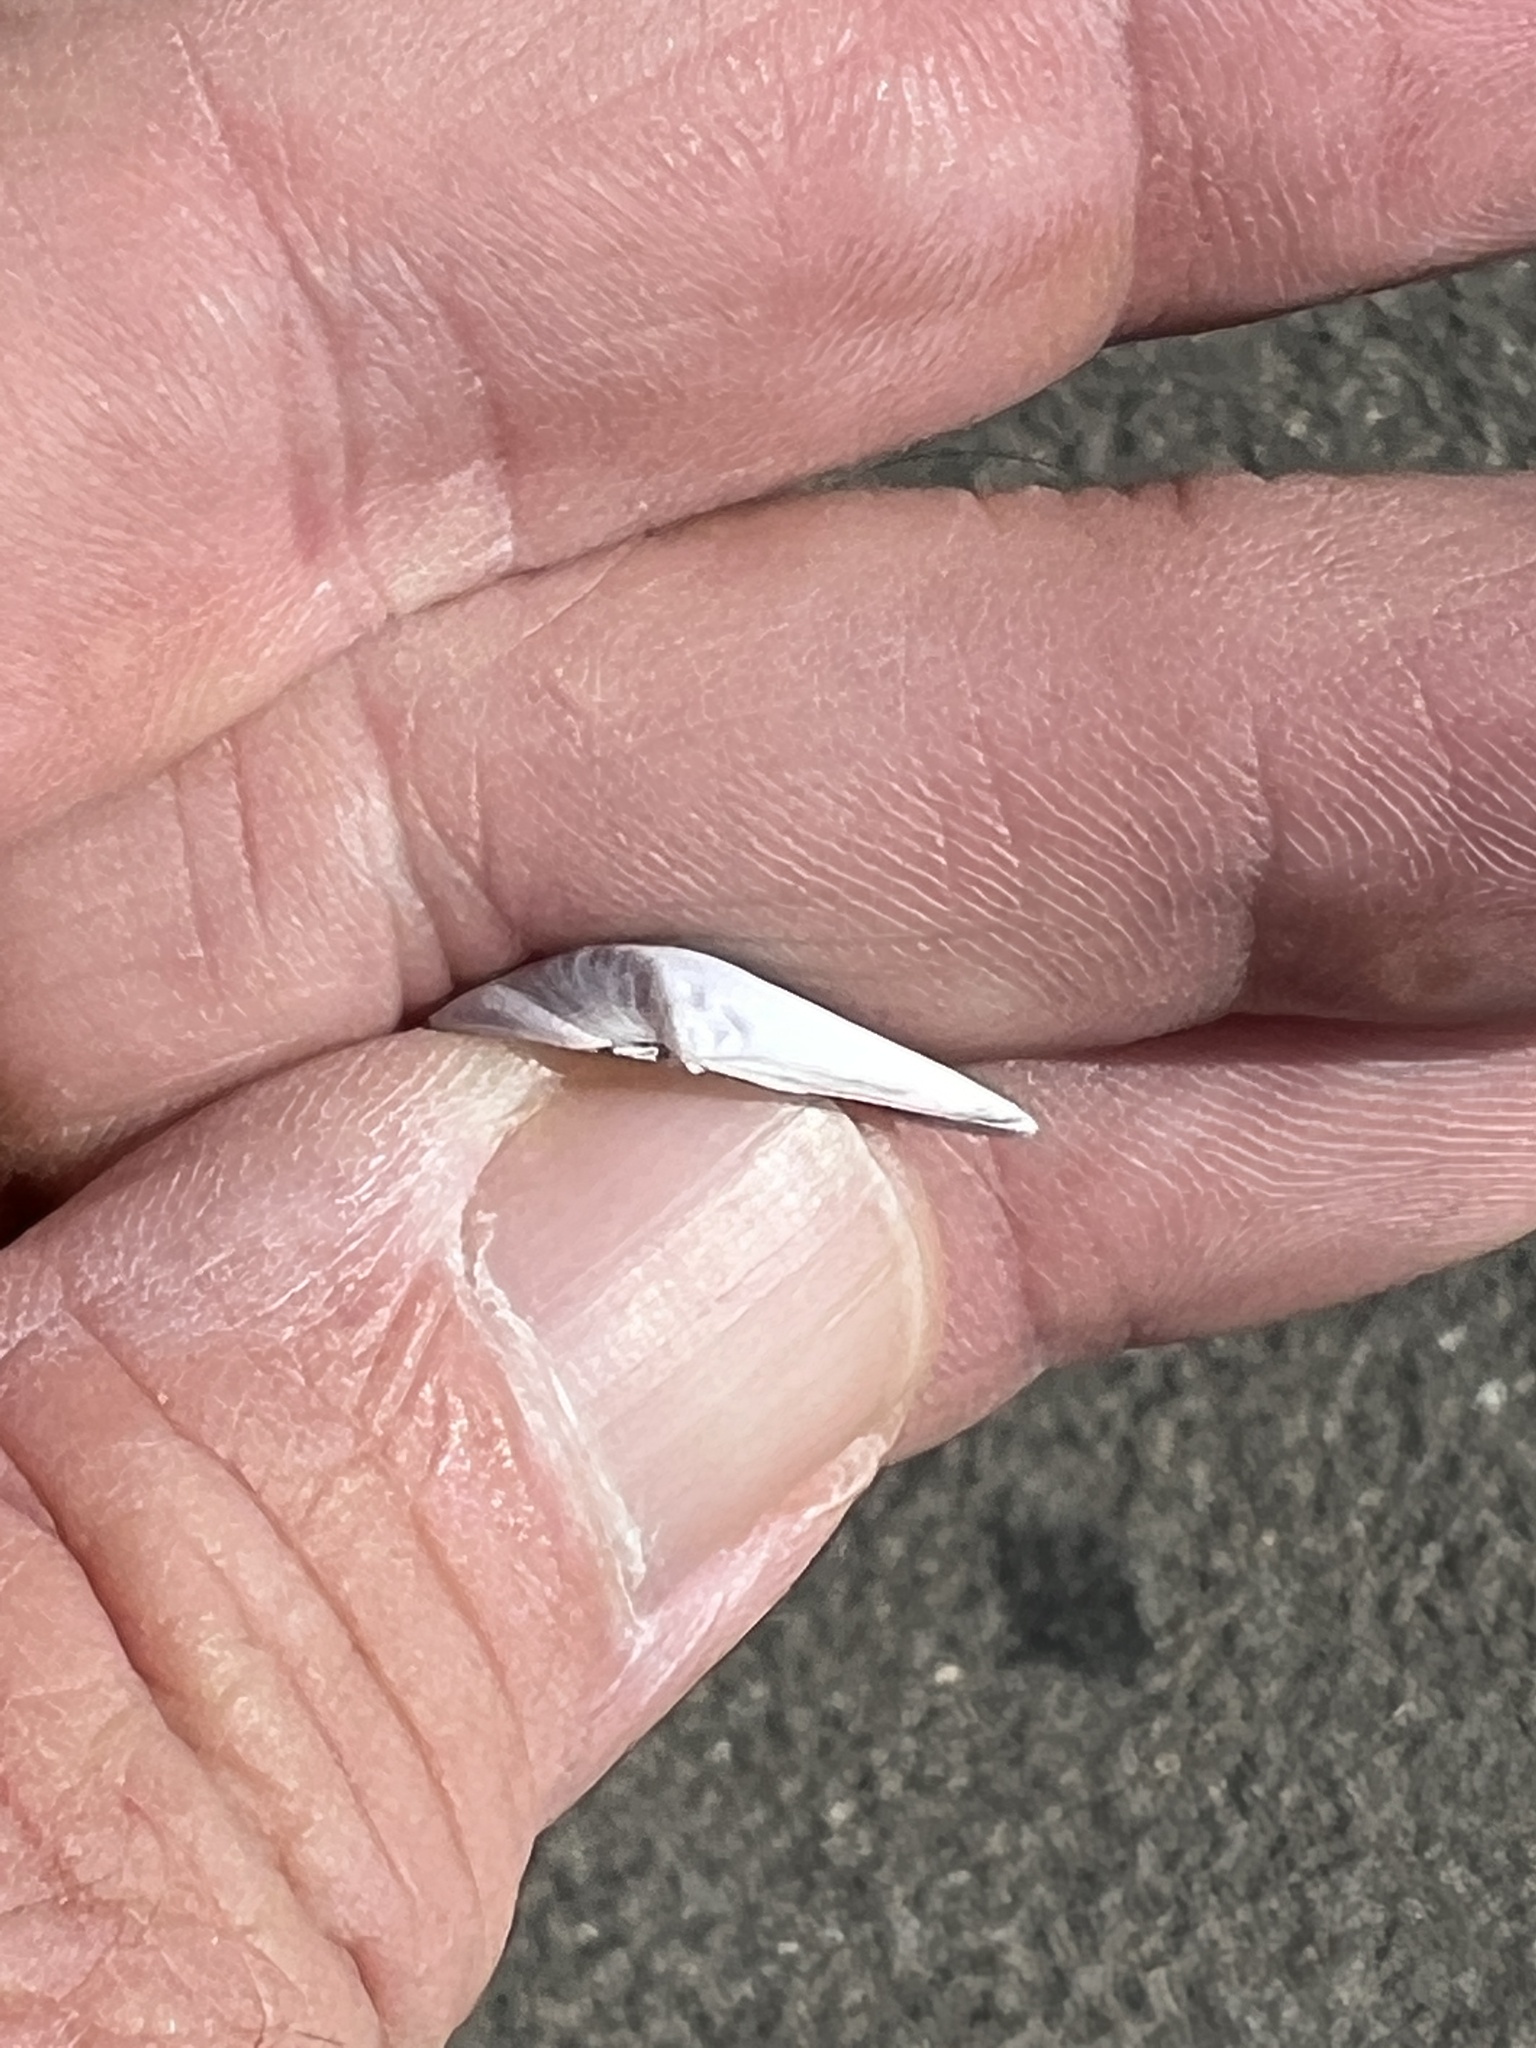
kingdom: Animalia
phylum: Mollusca
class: Bivalvia
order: Cardiida
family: Donacidae
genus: Donax
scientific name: Donax texasianus
